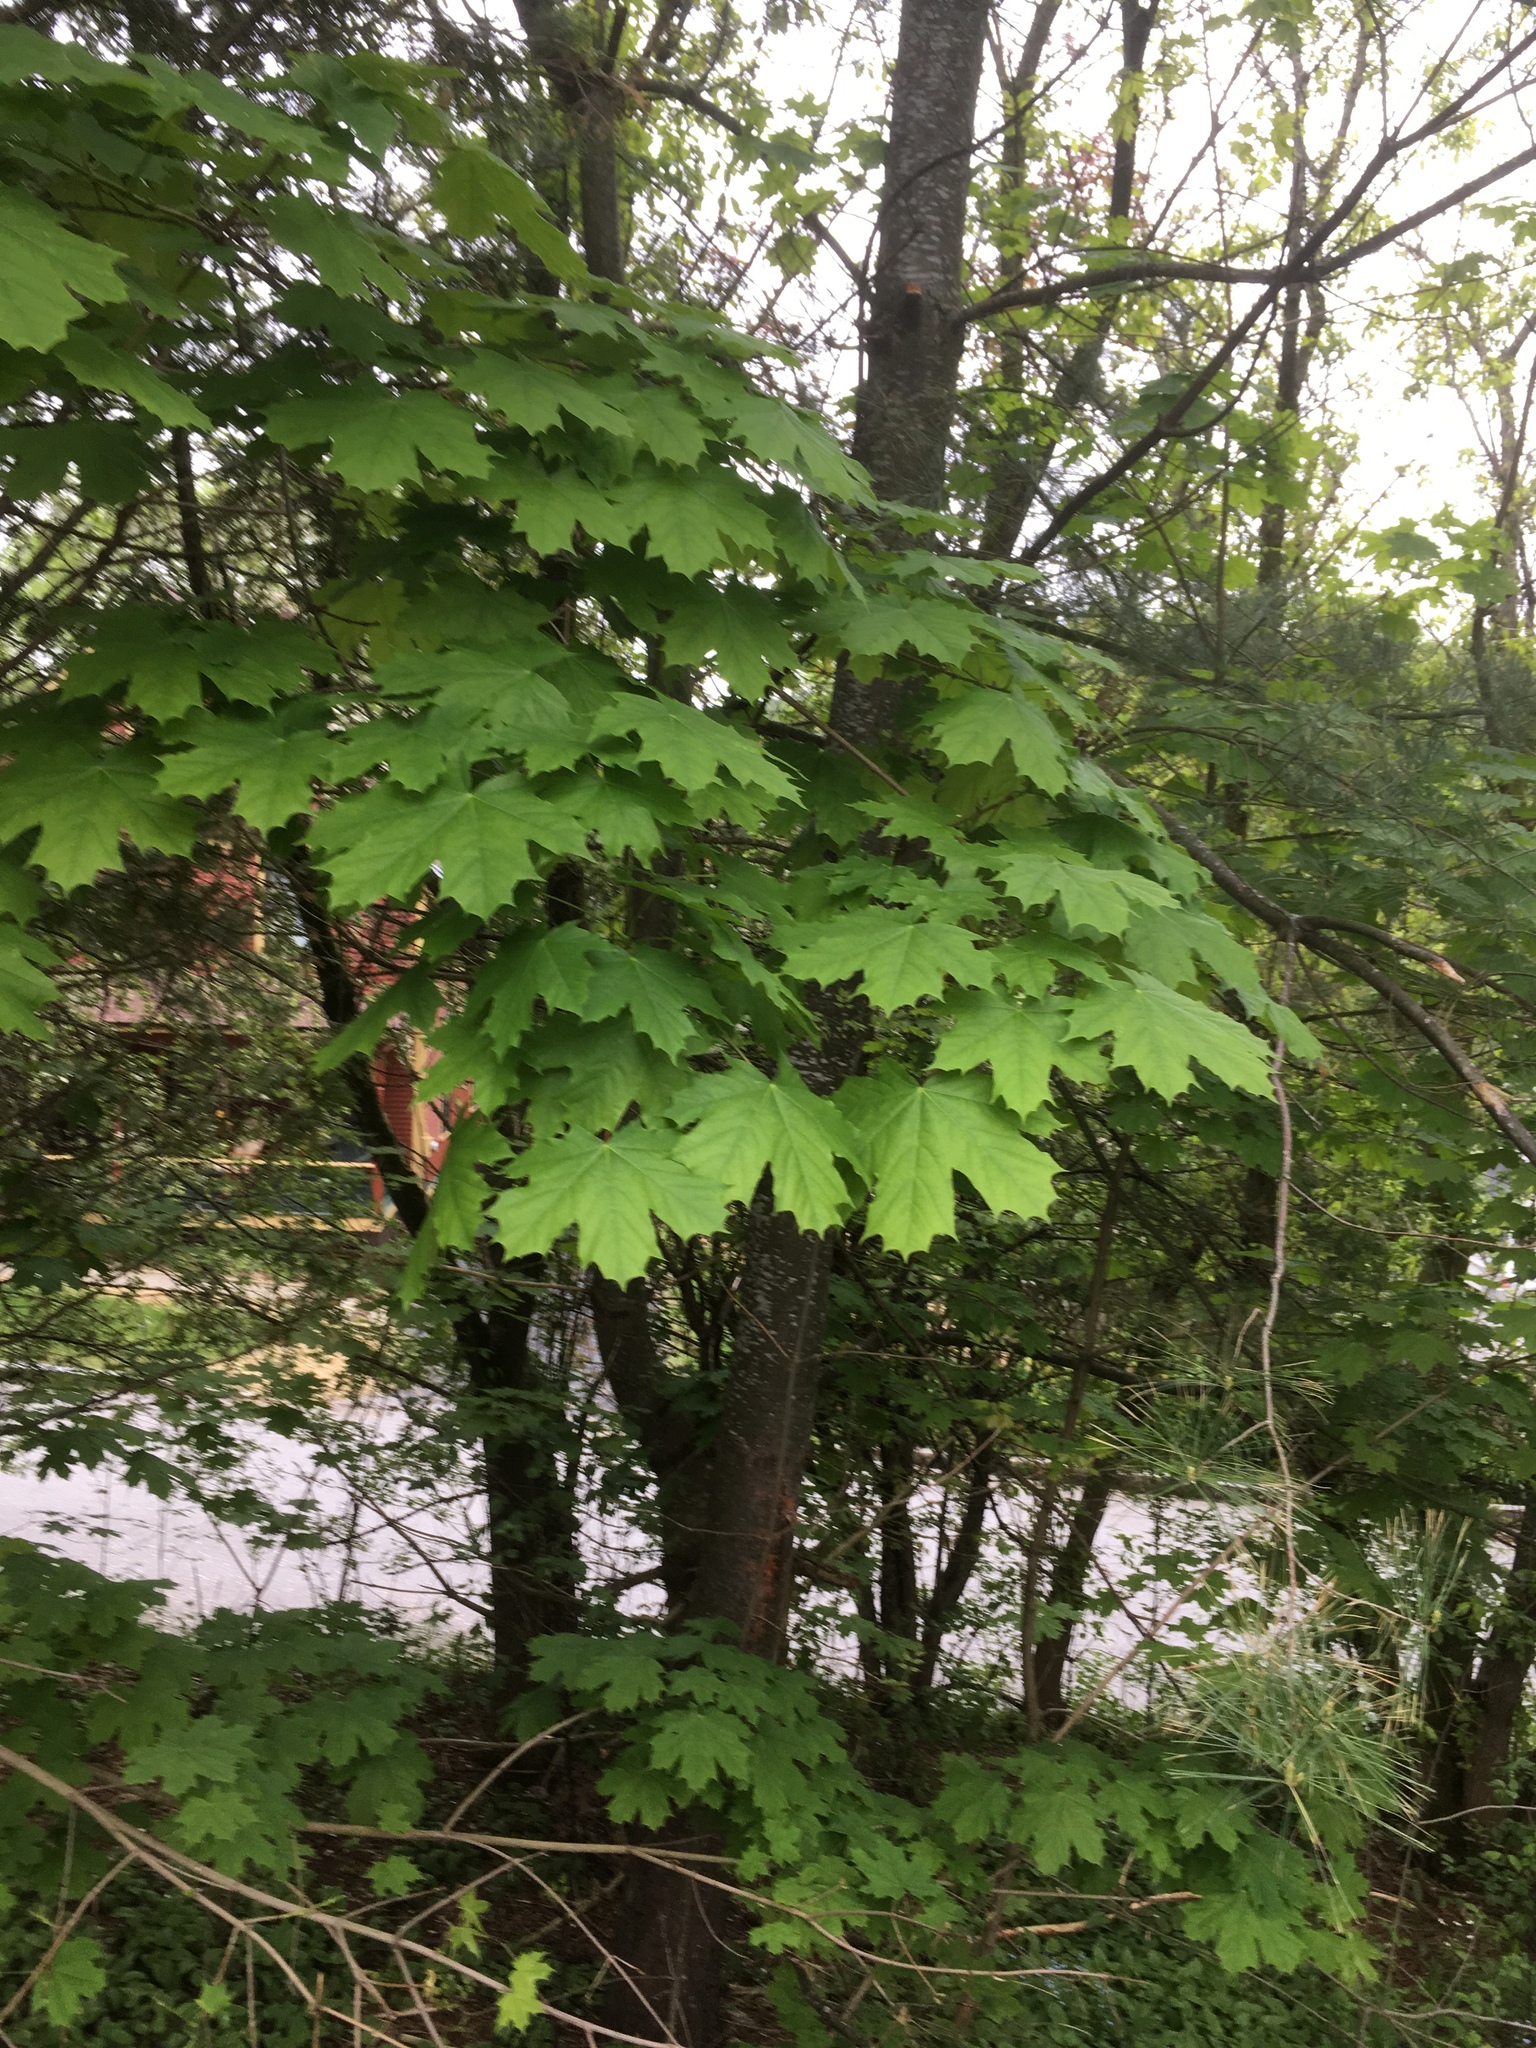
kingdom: Plantae
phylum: Tracheophyta
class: Magnoliopsida
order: Sapindales
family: Sapindaceae
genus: Acer
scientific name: Acer platanoides
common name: Norway maple
